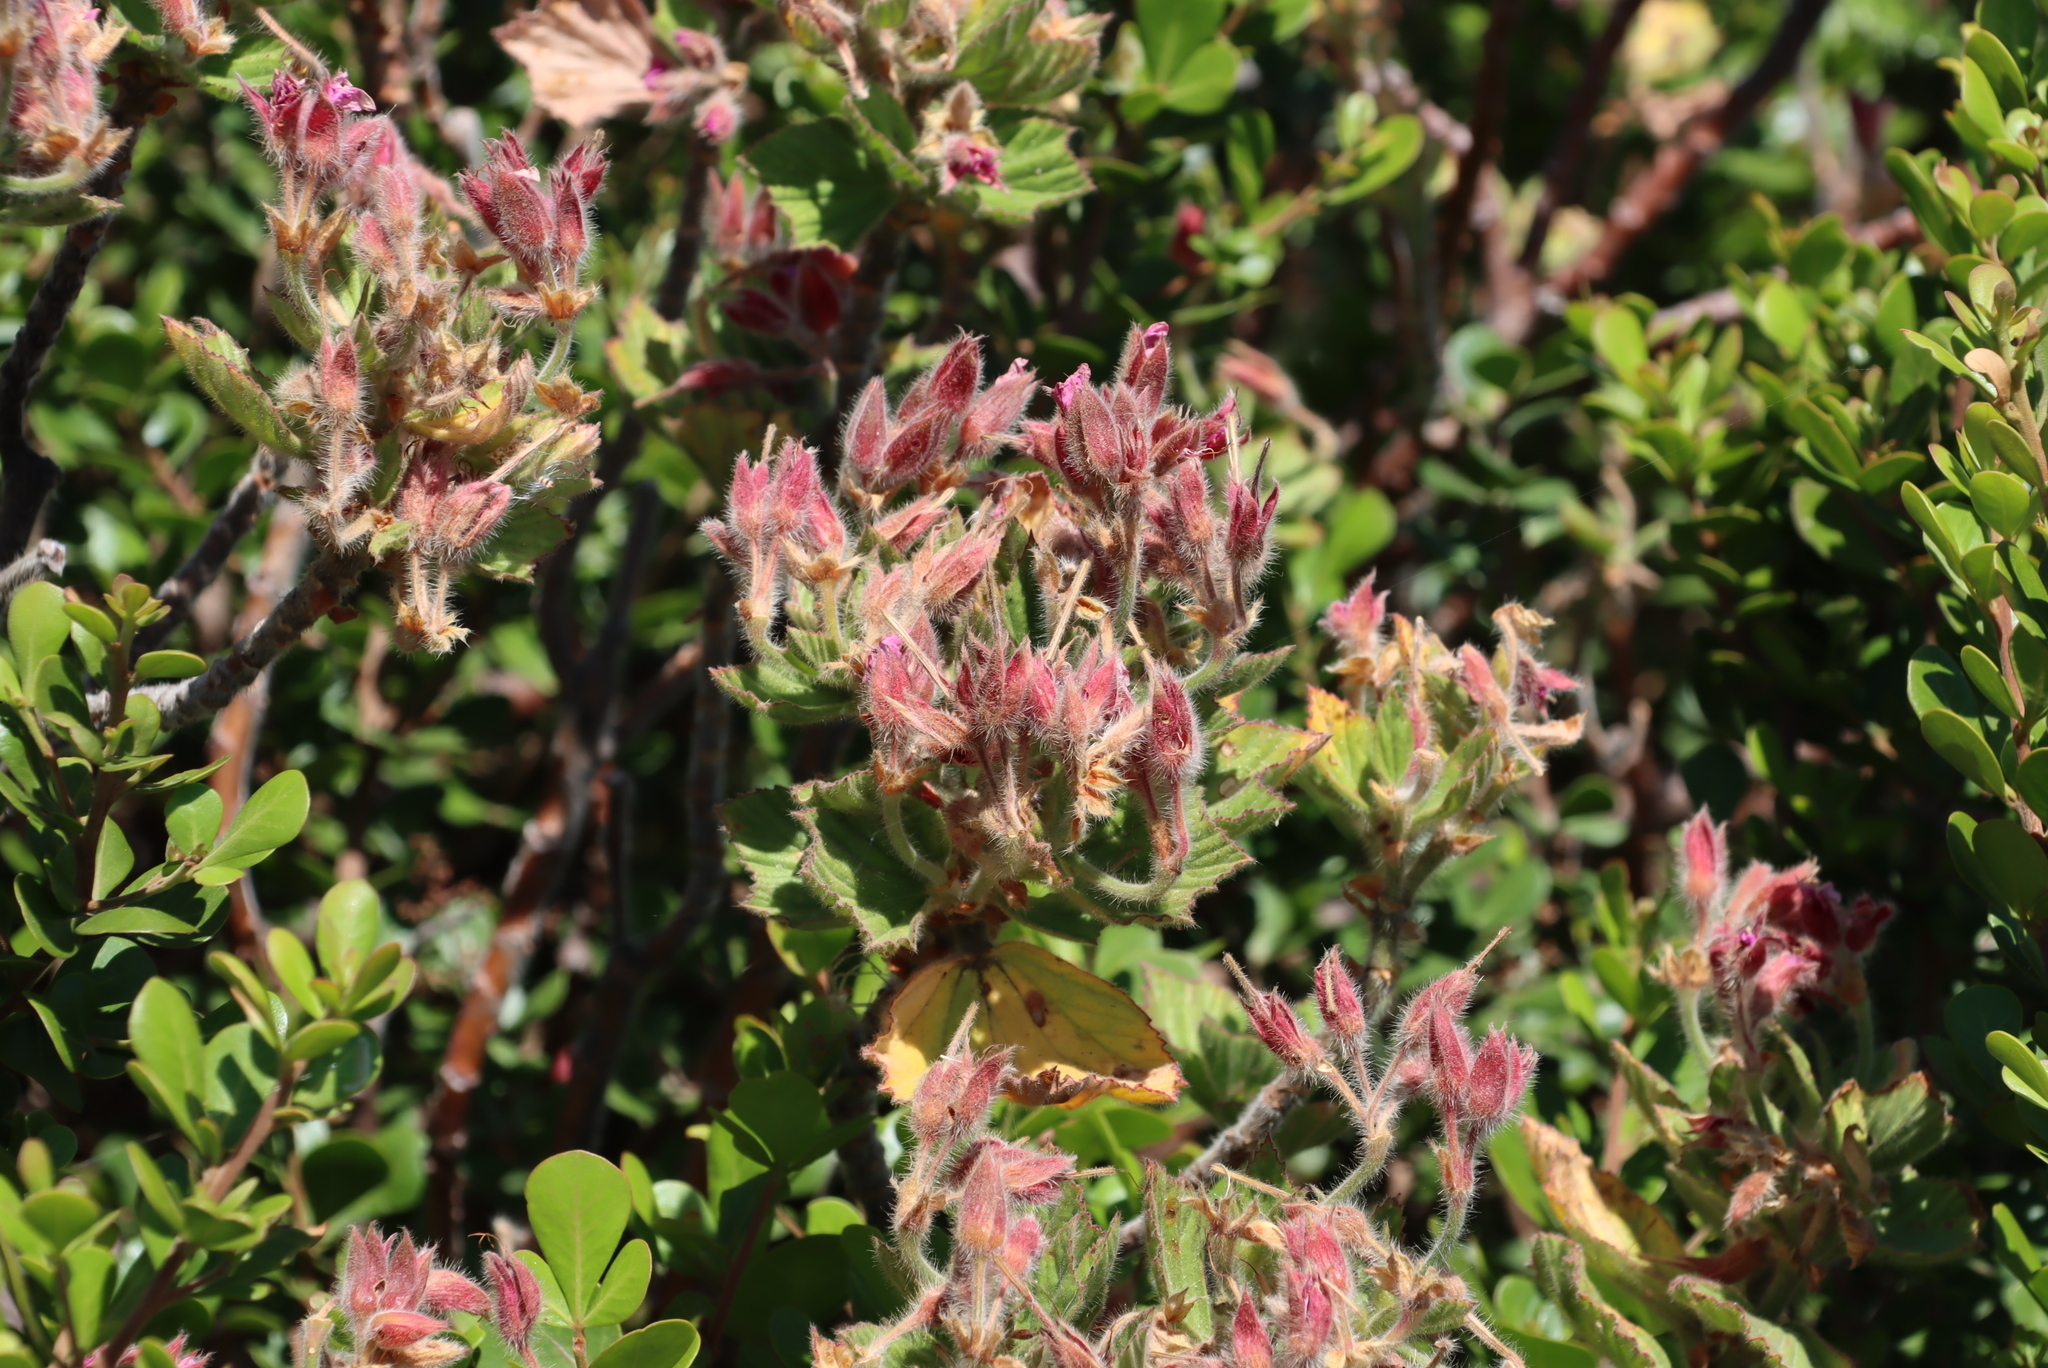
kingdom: Plantae
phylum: Tracheophyta
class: Magnoliopsida
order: Geraniales
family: Geraniaceae
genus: Pelargonium
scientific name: Pelargonium cucullatum
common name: Tree pelargonium
